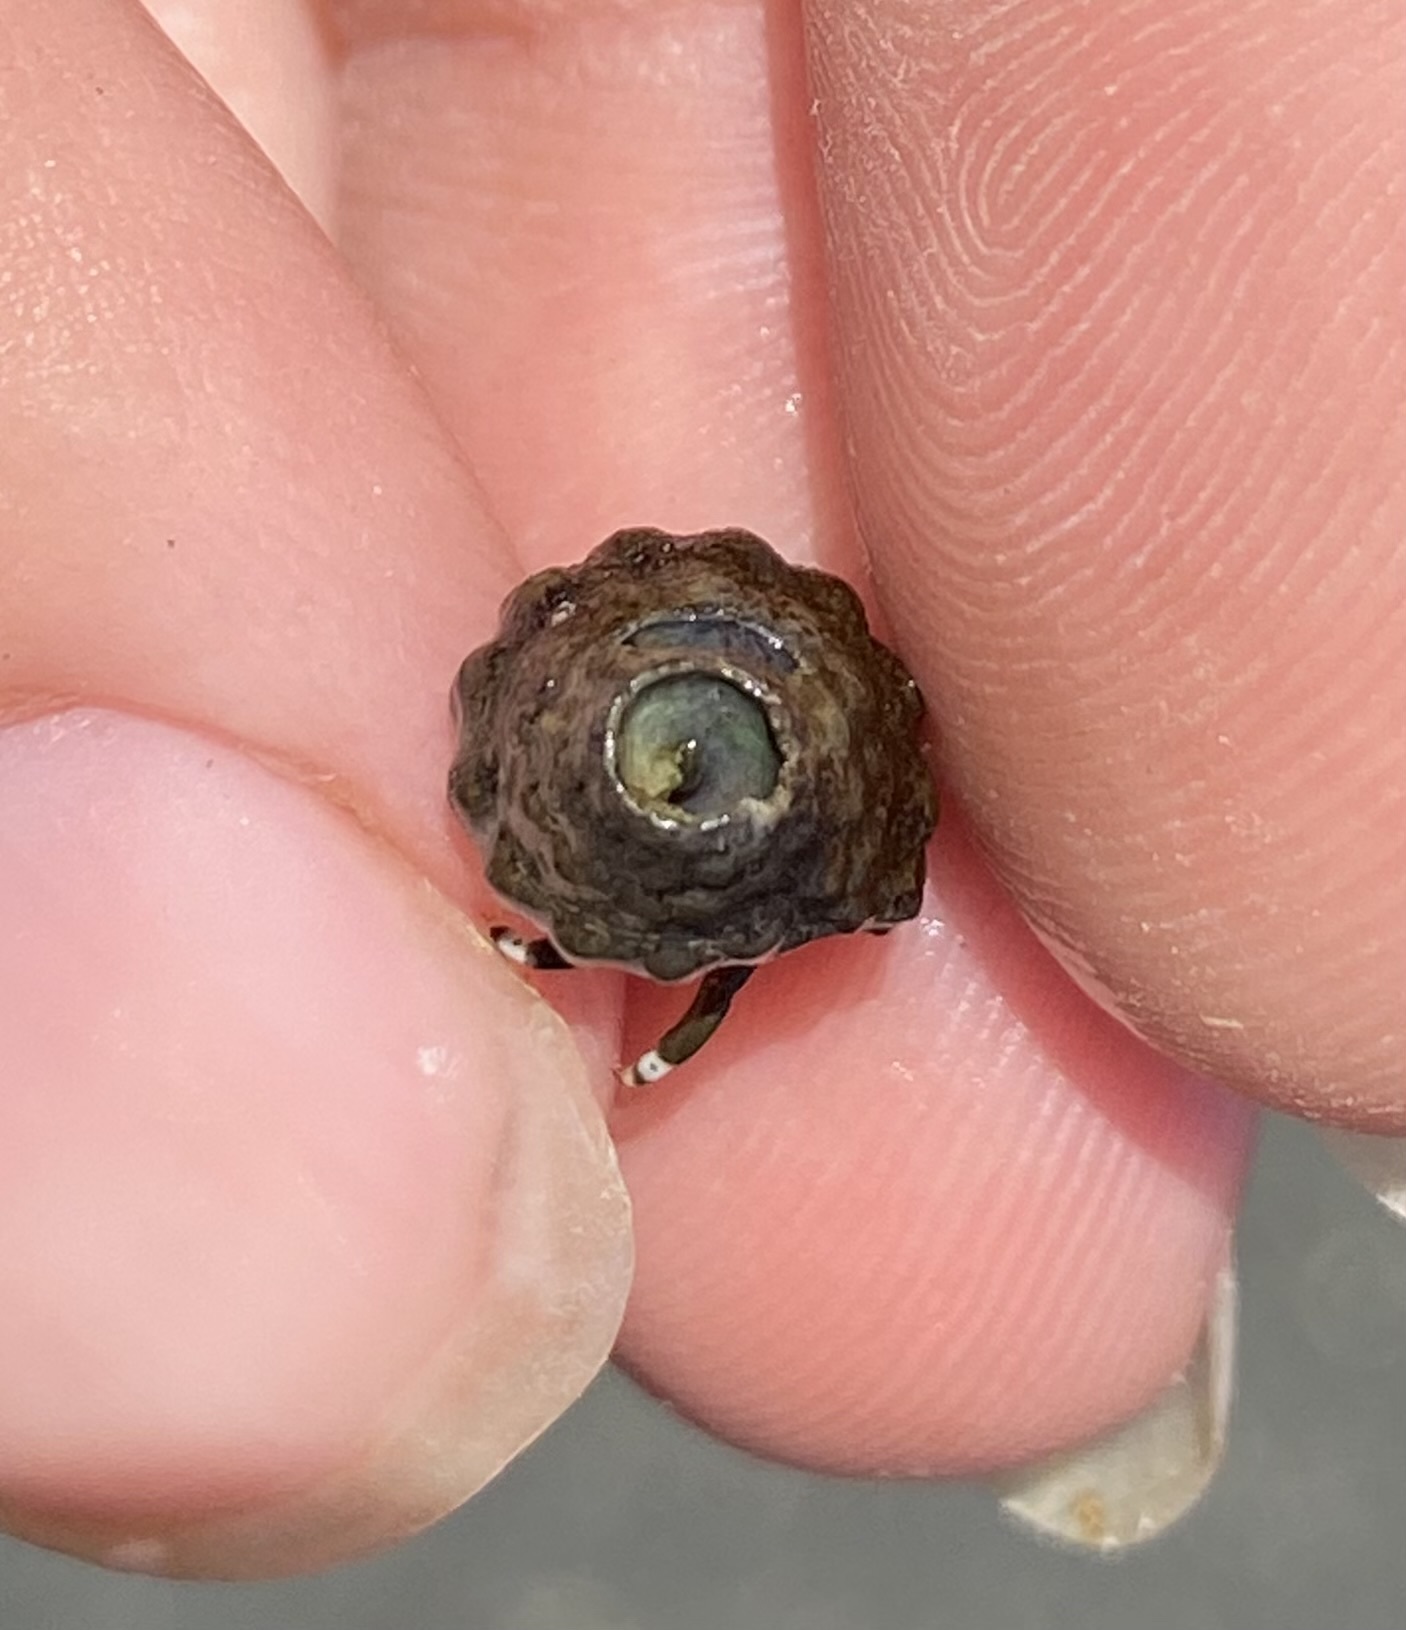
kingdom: Animalia
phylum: Arthropoda
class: Malacostraca
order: Decapoda
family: Diogenidae
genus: Calcinus
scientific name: Calcinus laevimanus
